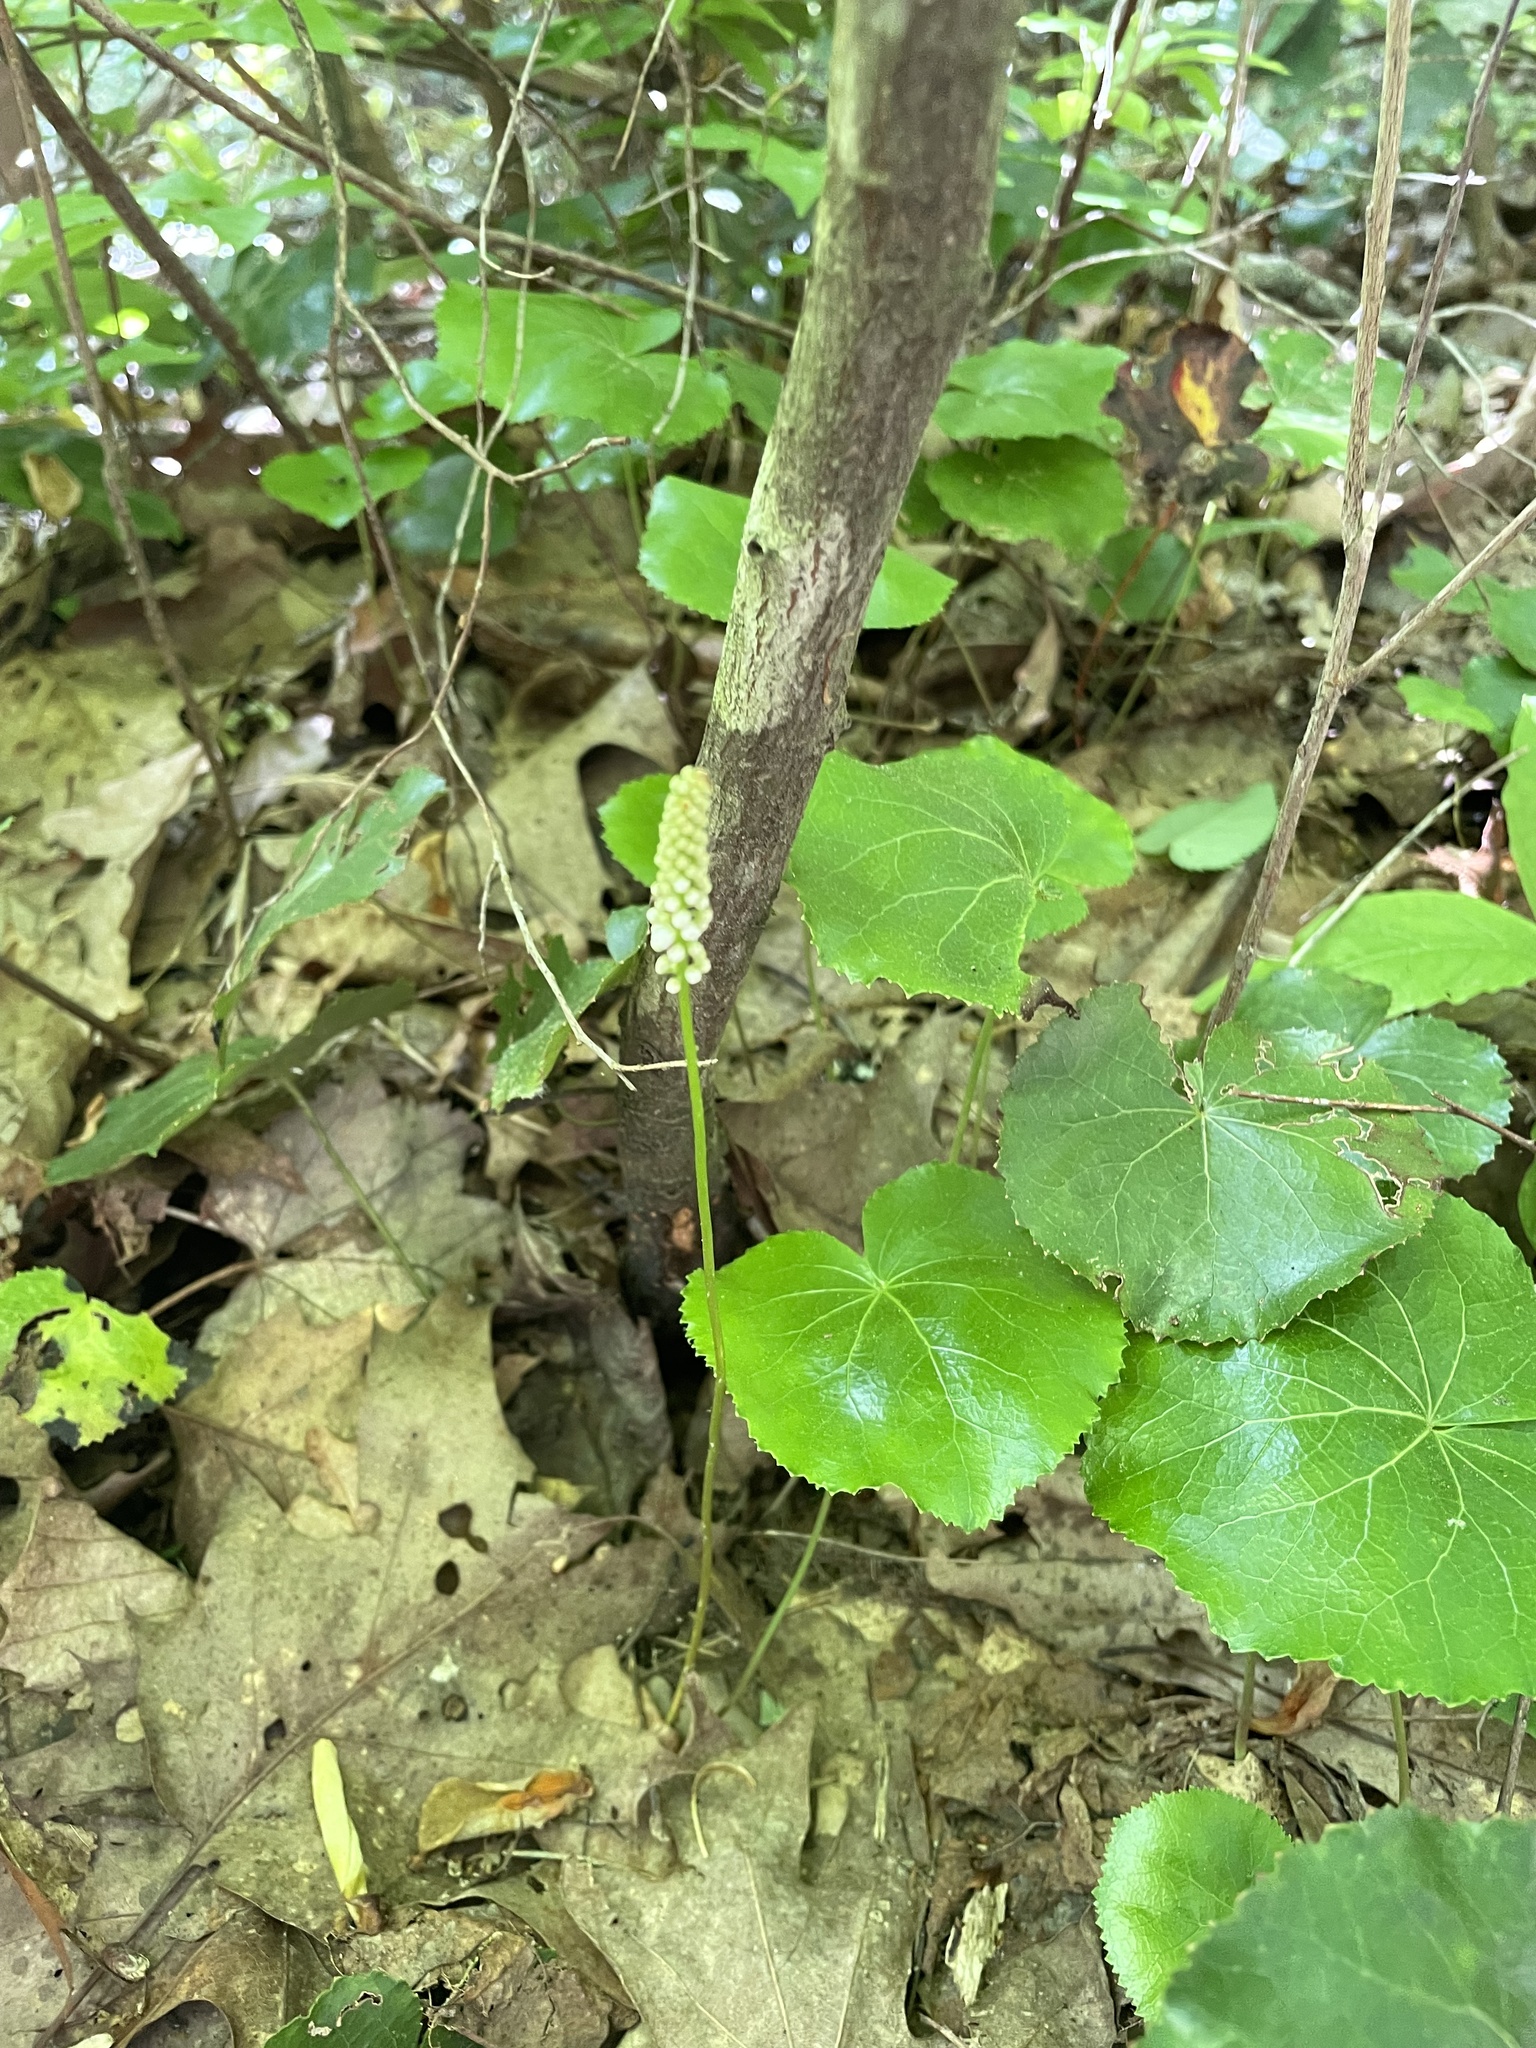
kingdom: Plantae
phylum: Tracheophyta
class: Magnoliopsida
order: Ericales
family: Diapensiaceae
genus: Galax
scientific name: Galax urceolata
